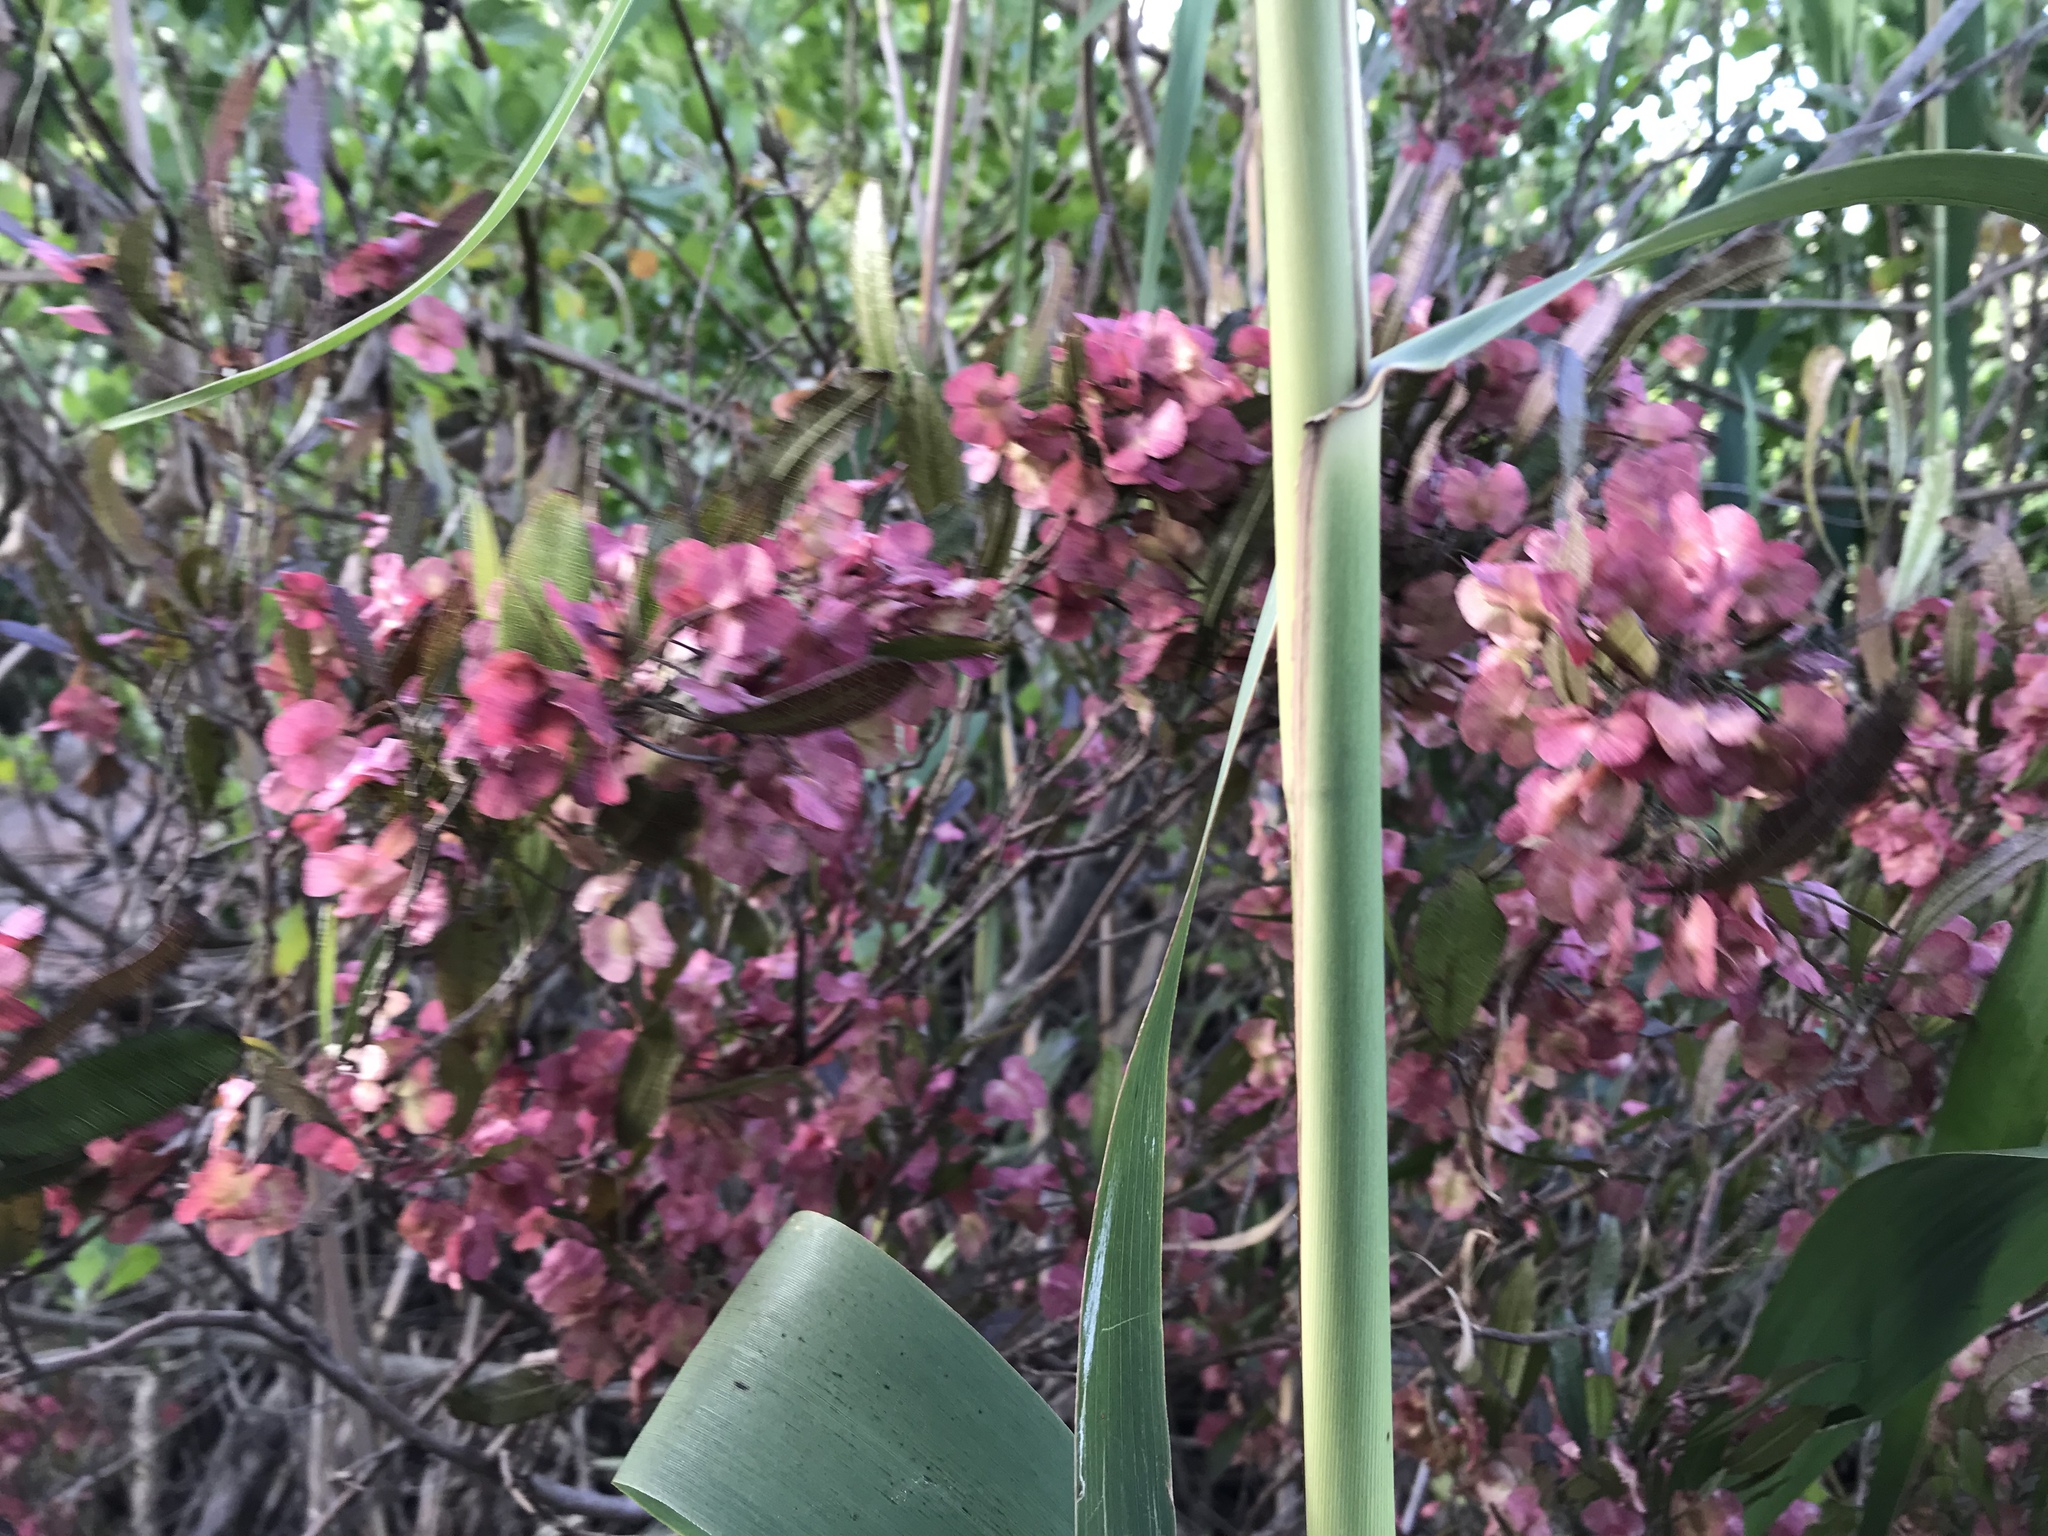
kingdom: Plantae
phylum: Tracheophyta
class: Magnoliopsida
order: Sapindales
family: Sapindaceae
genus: Dodonaea
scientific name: Dodonaea viscosa
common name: Hopbush
